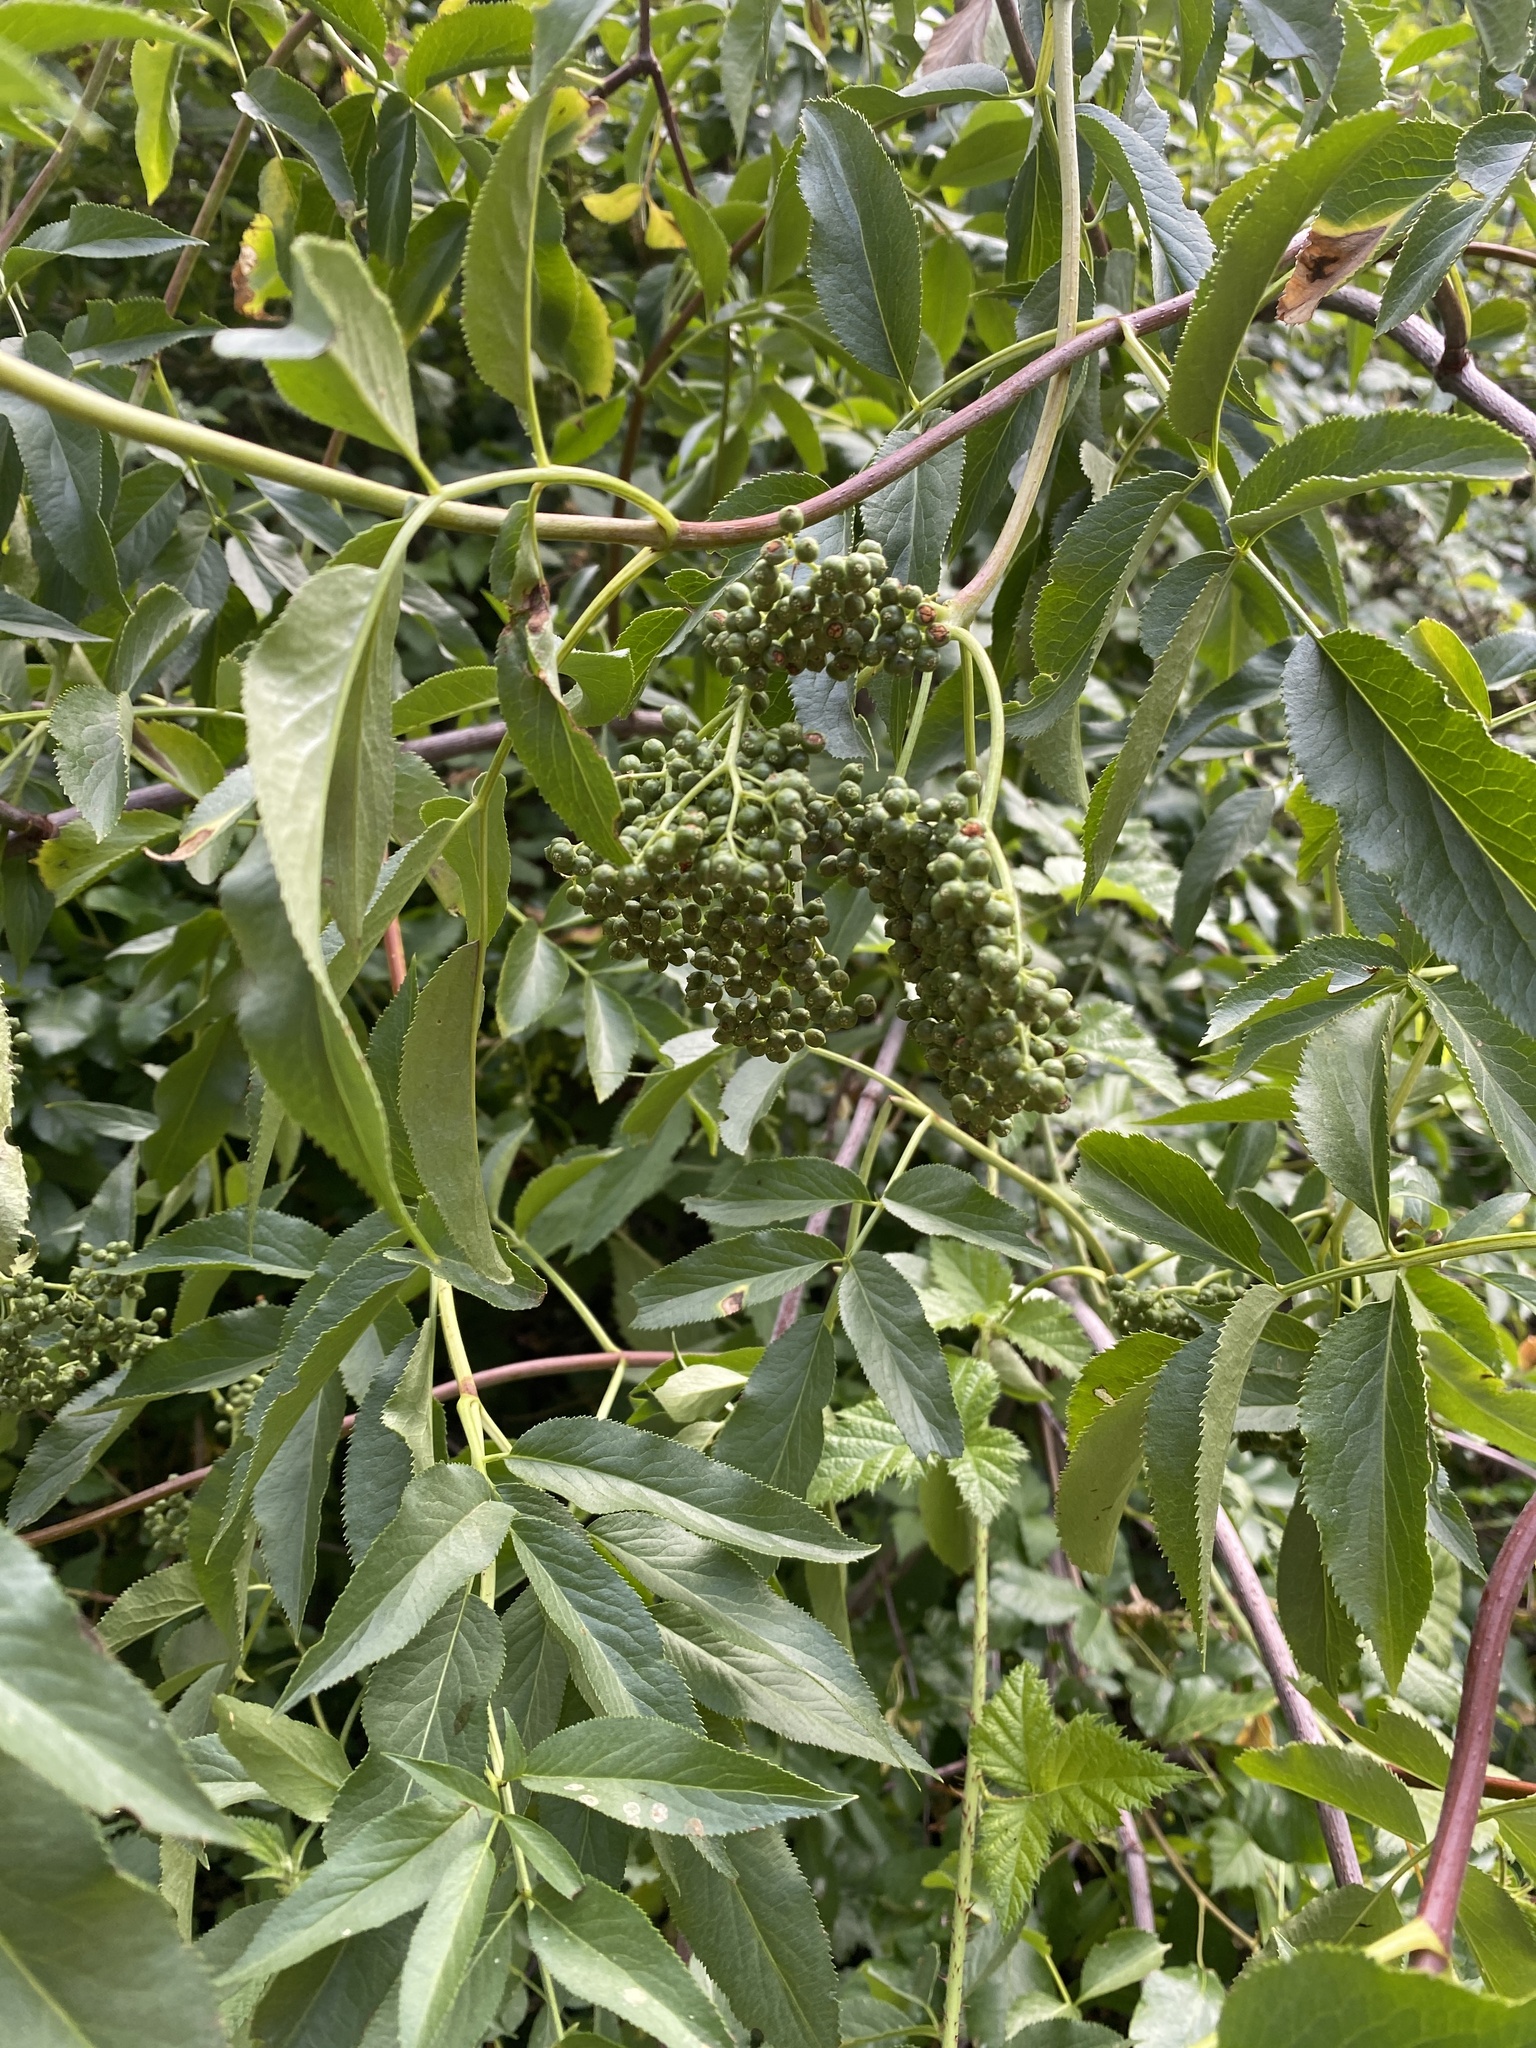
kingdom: Plantae
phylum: Tracheophyta
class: Magnoliopsida
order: Dipsacales
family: Viburnaceae
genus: Sambucus
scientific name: Sambucus cerulea
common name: Blue elder
